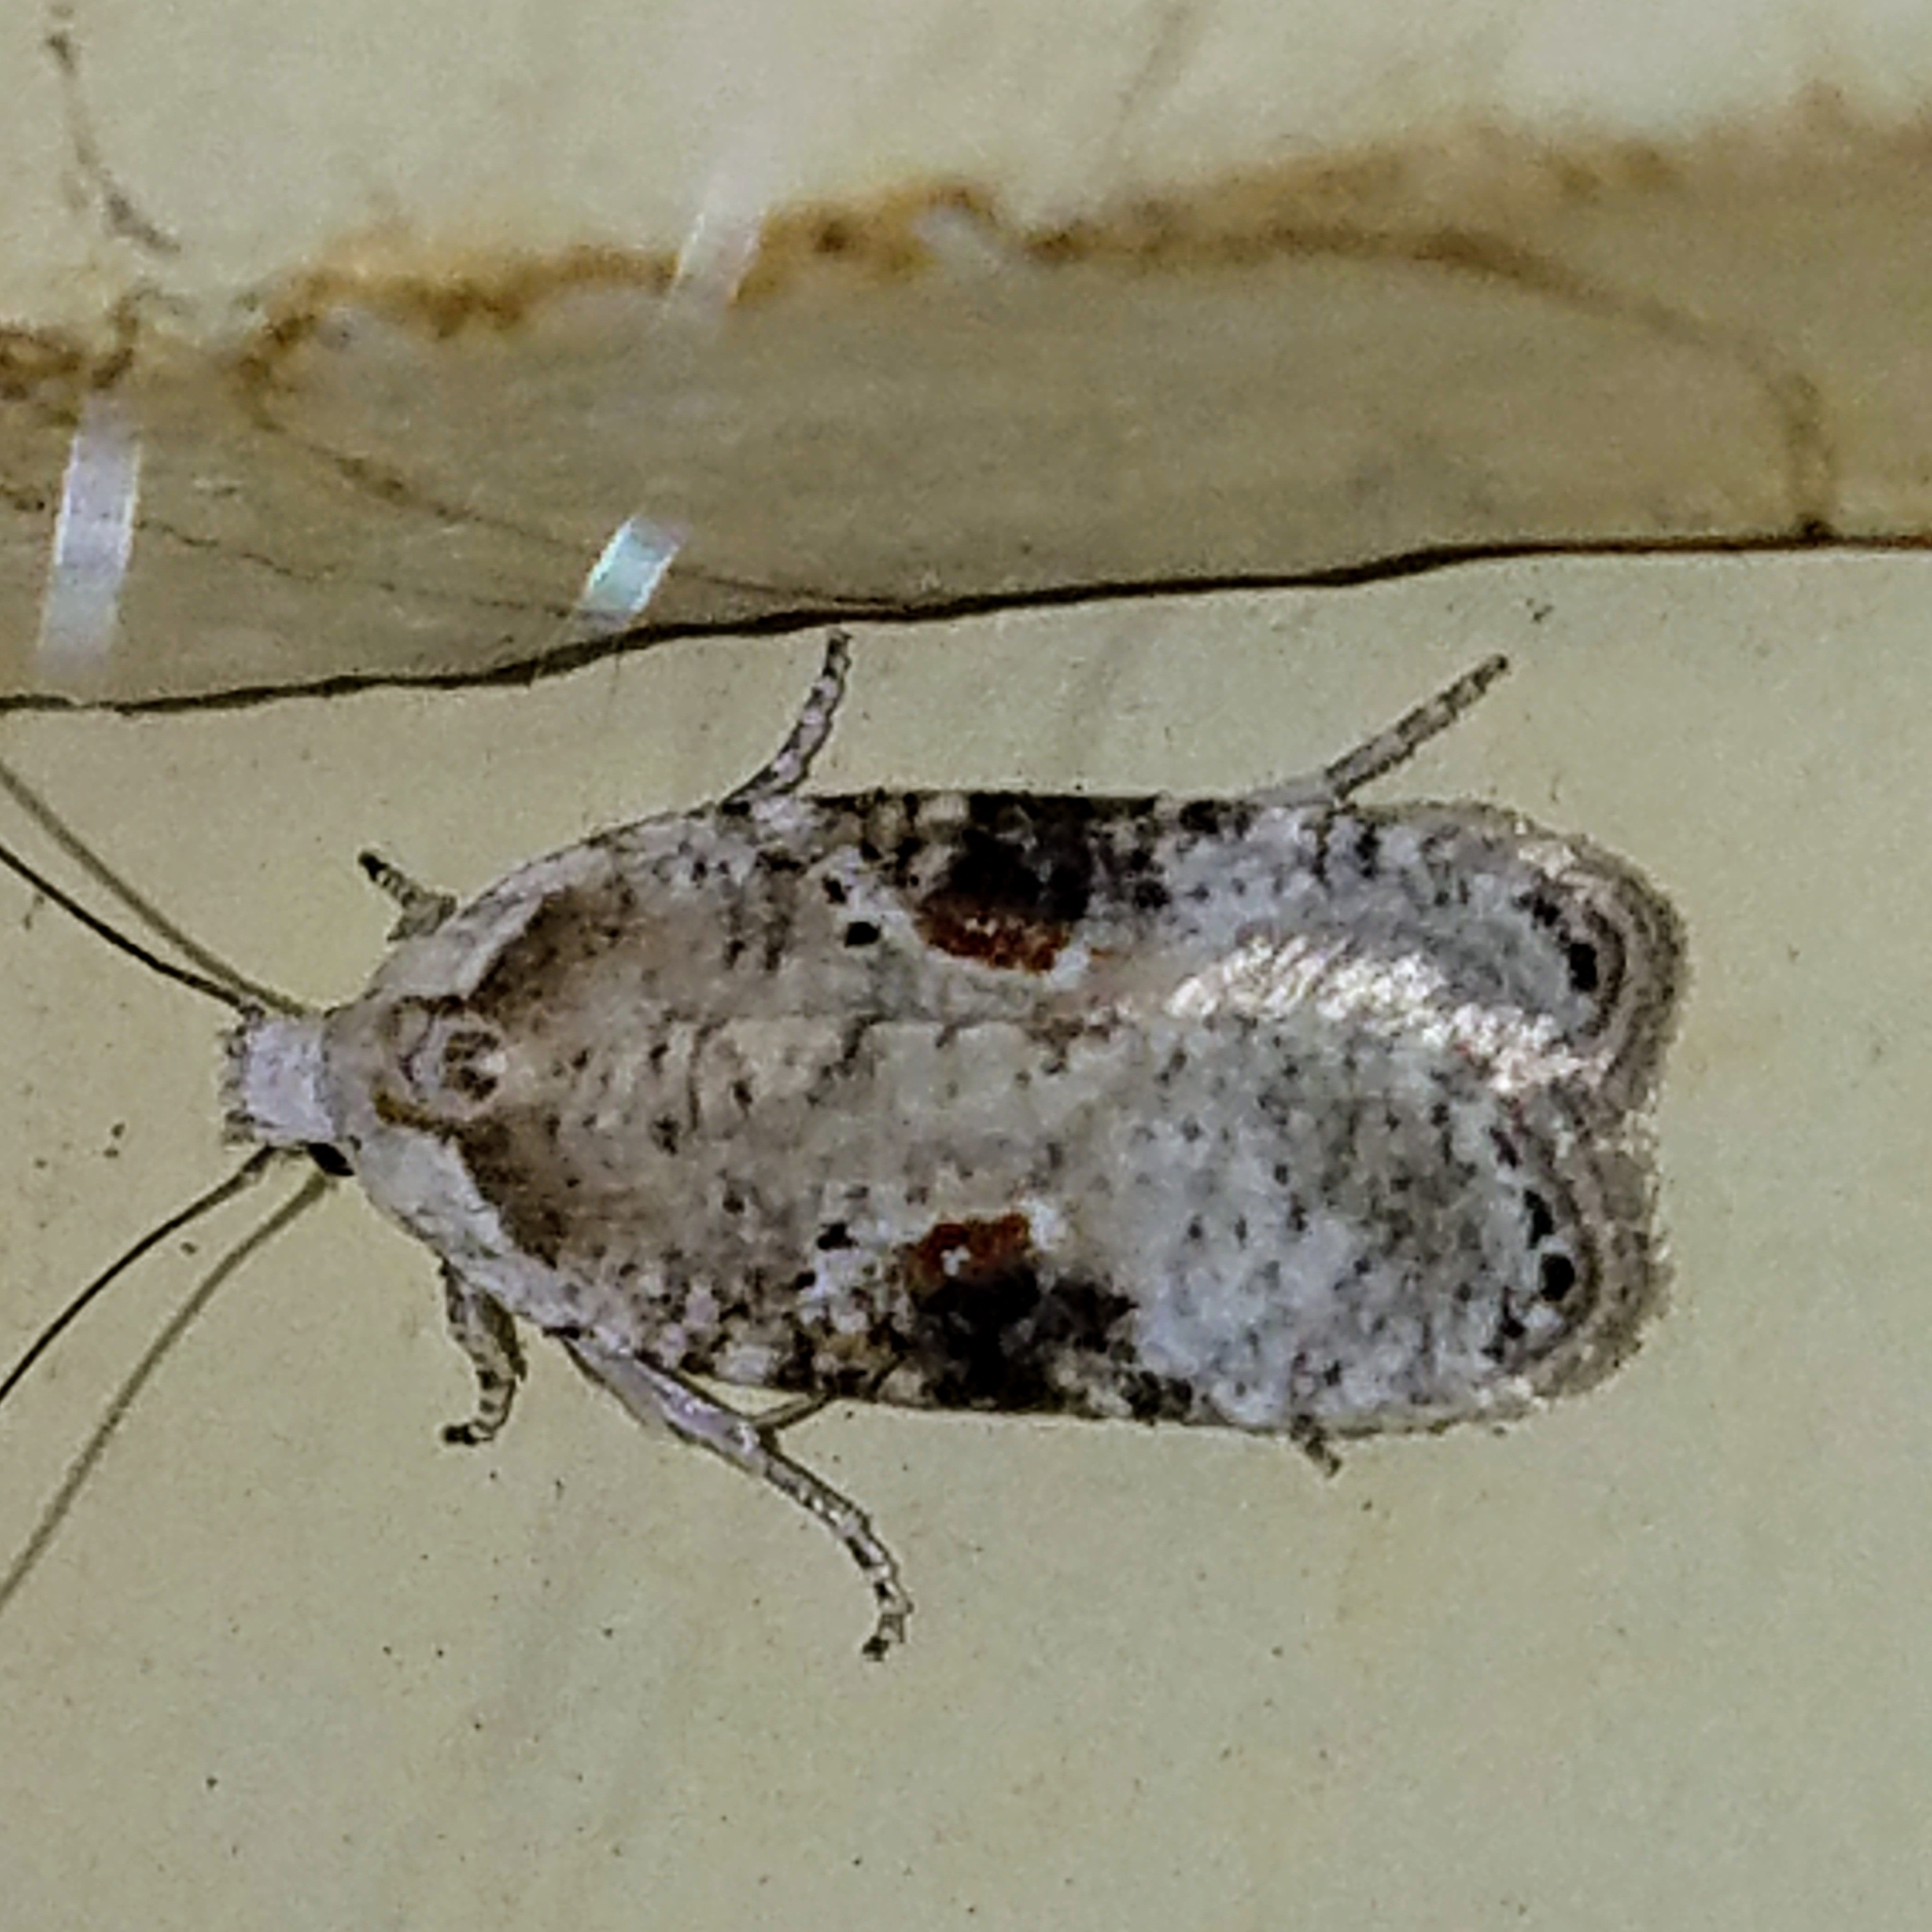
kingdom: Animalia
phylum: Arthropoda
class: Insecta
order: Lepidoptera
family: Depressariidae
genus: Agonopterix
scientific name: Agonopterix alstroemeriana
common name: Moth
